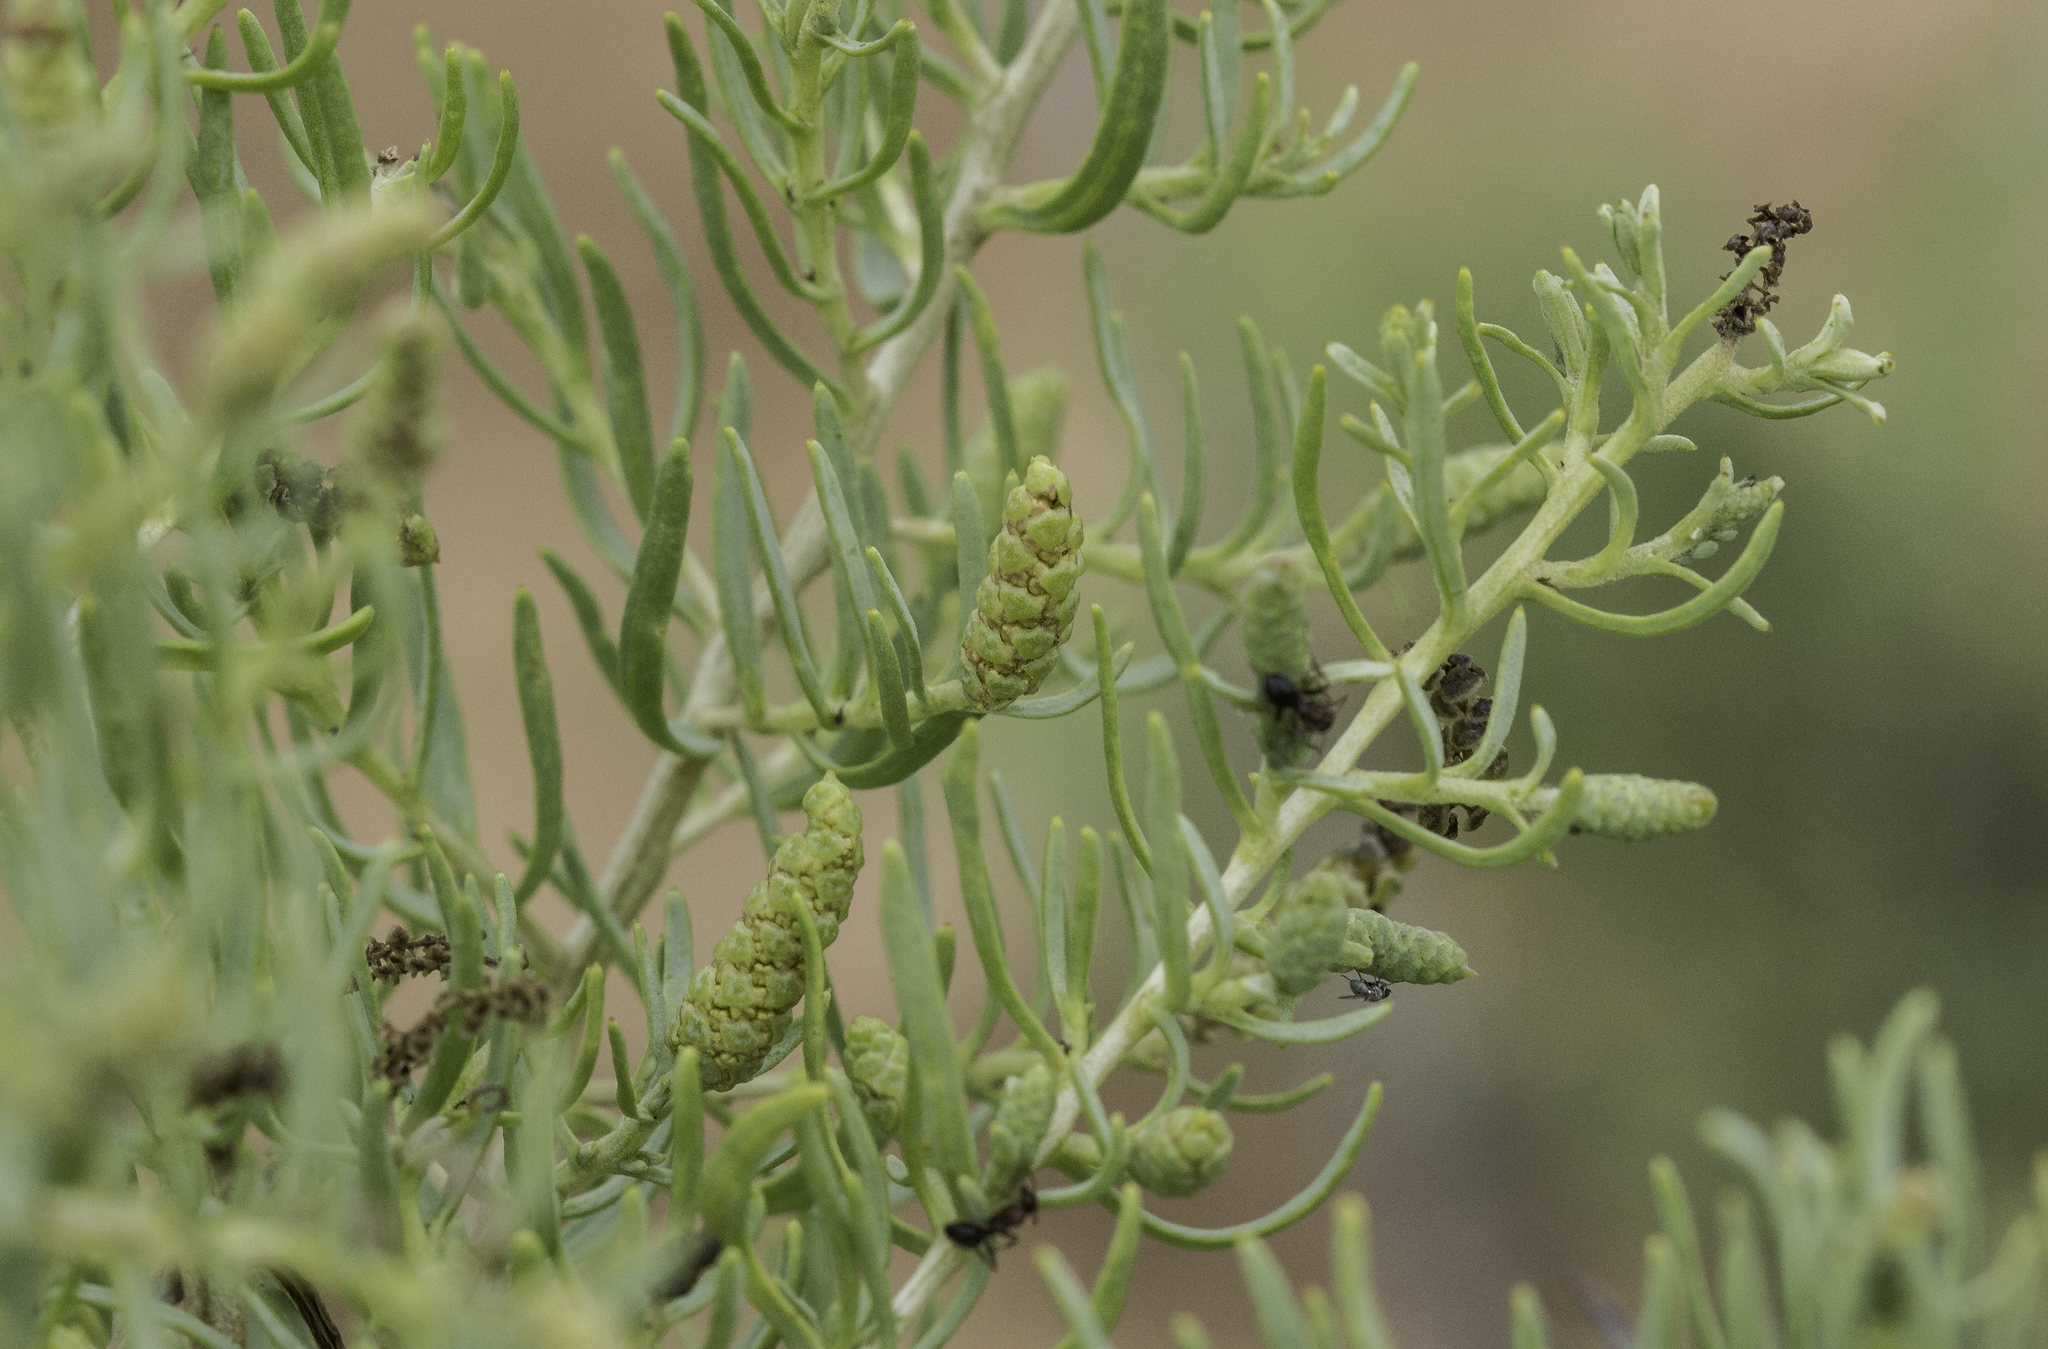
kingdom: Plantae
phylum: Tracheophyta
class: Magnoliopsida
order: Caryophyllales
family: Sarcobataceae
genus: Sarcobatus
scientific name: Sarcobatus vermiculatus
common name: Greasewood
